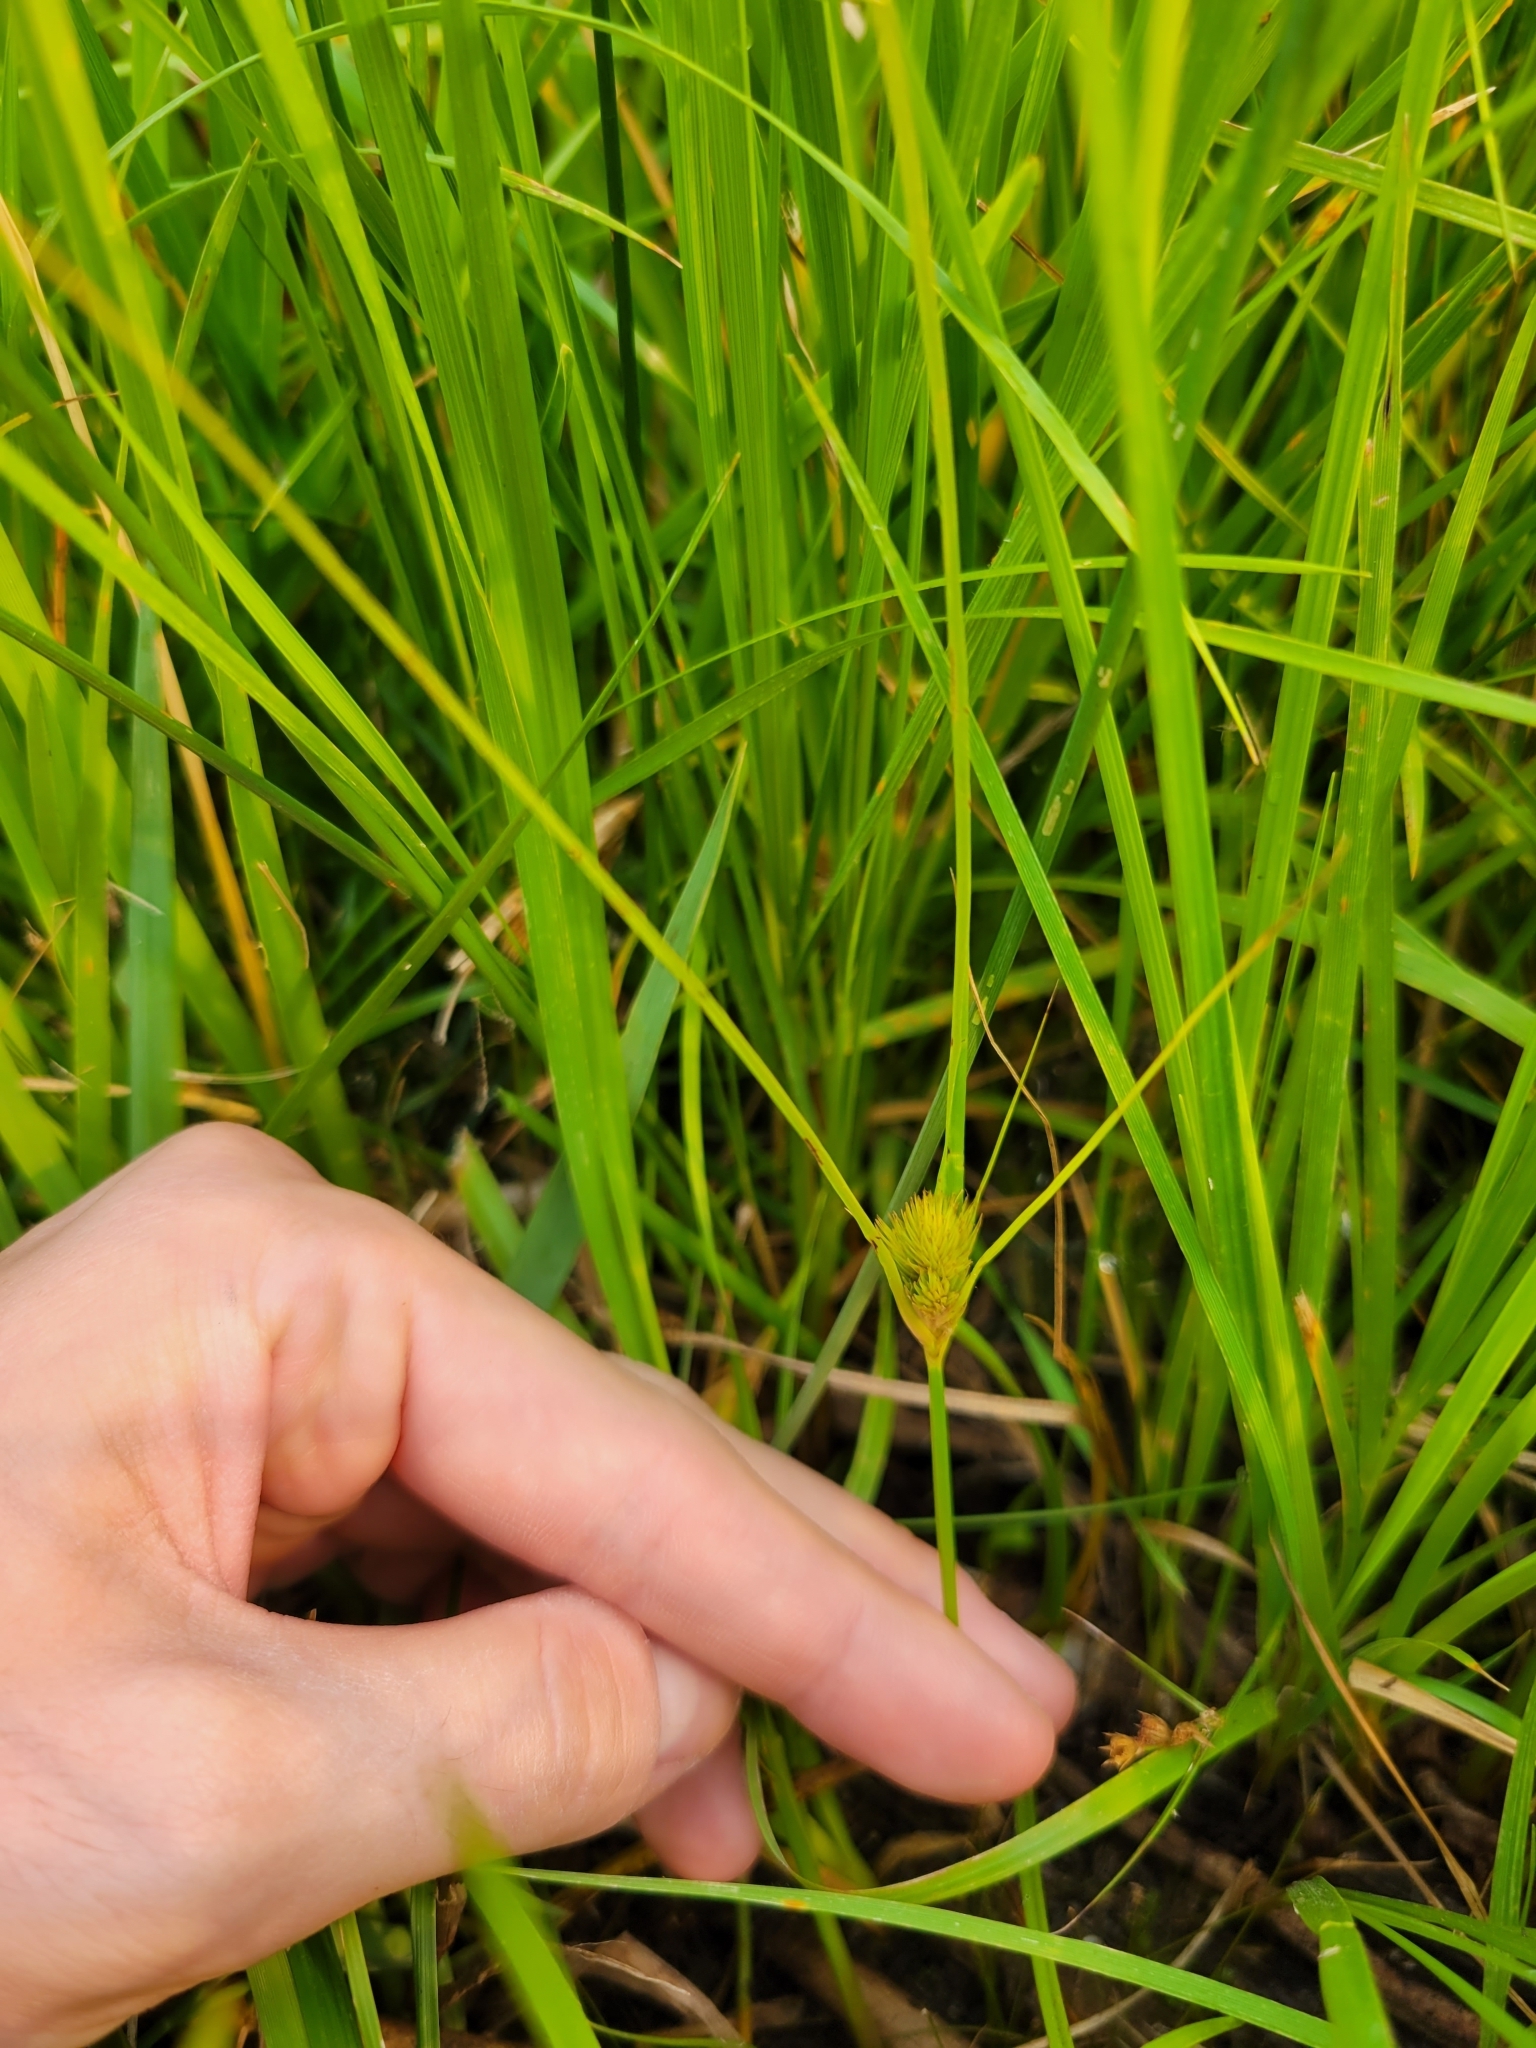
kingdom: Plantae
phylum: Tracheophyta
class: Liliopsida
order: Poales
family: Cyperaceae
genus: Carex
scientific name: Carex sychnocephala
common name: Dense long-beaked sedge
